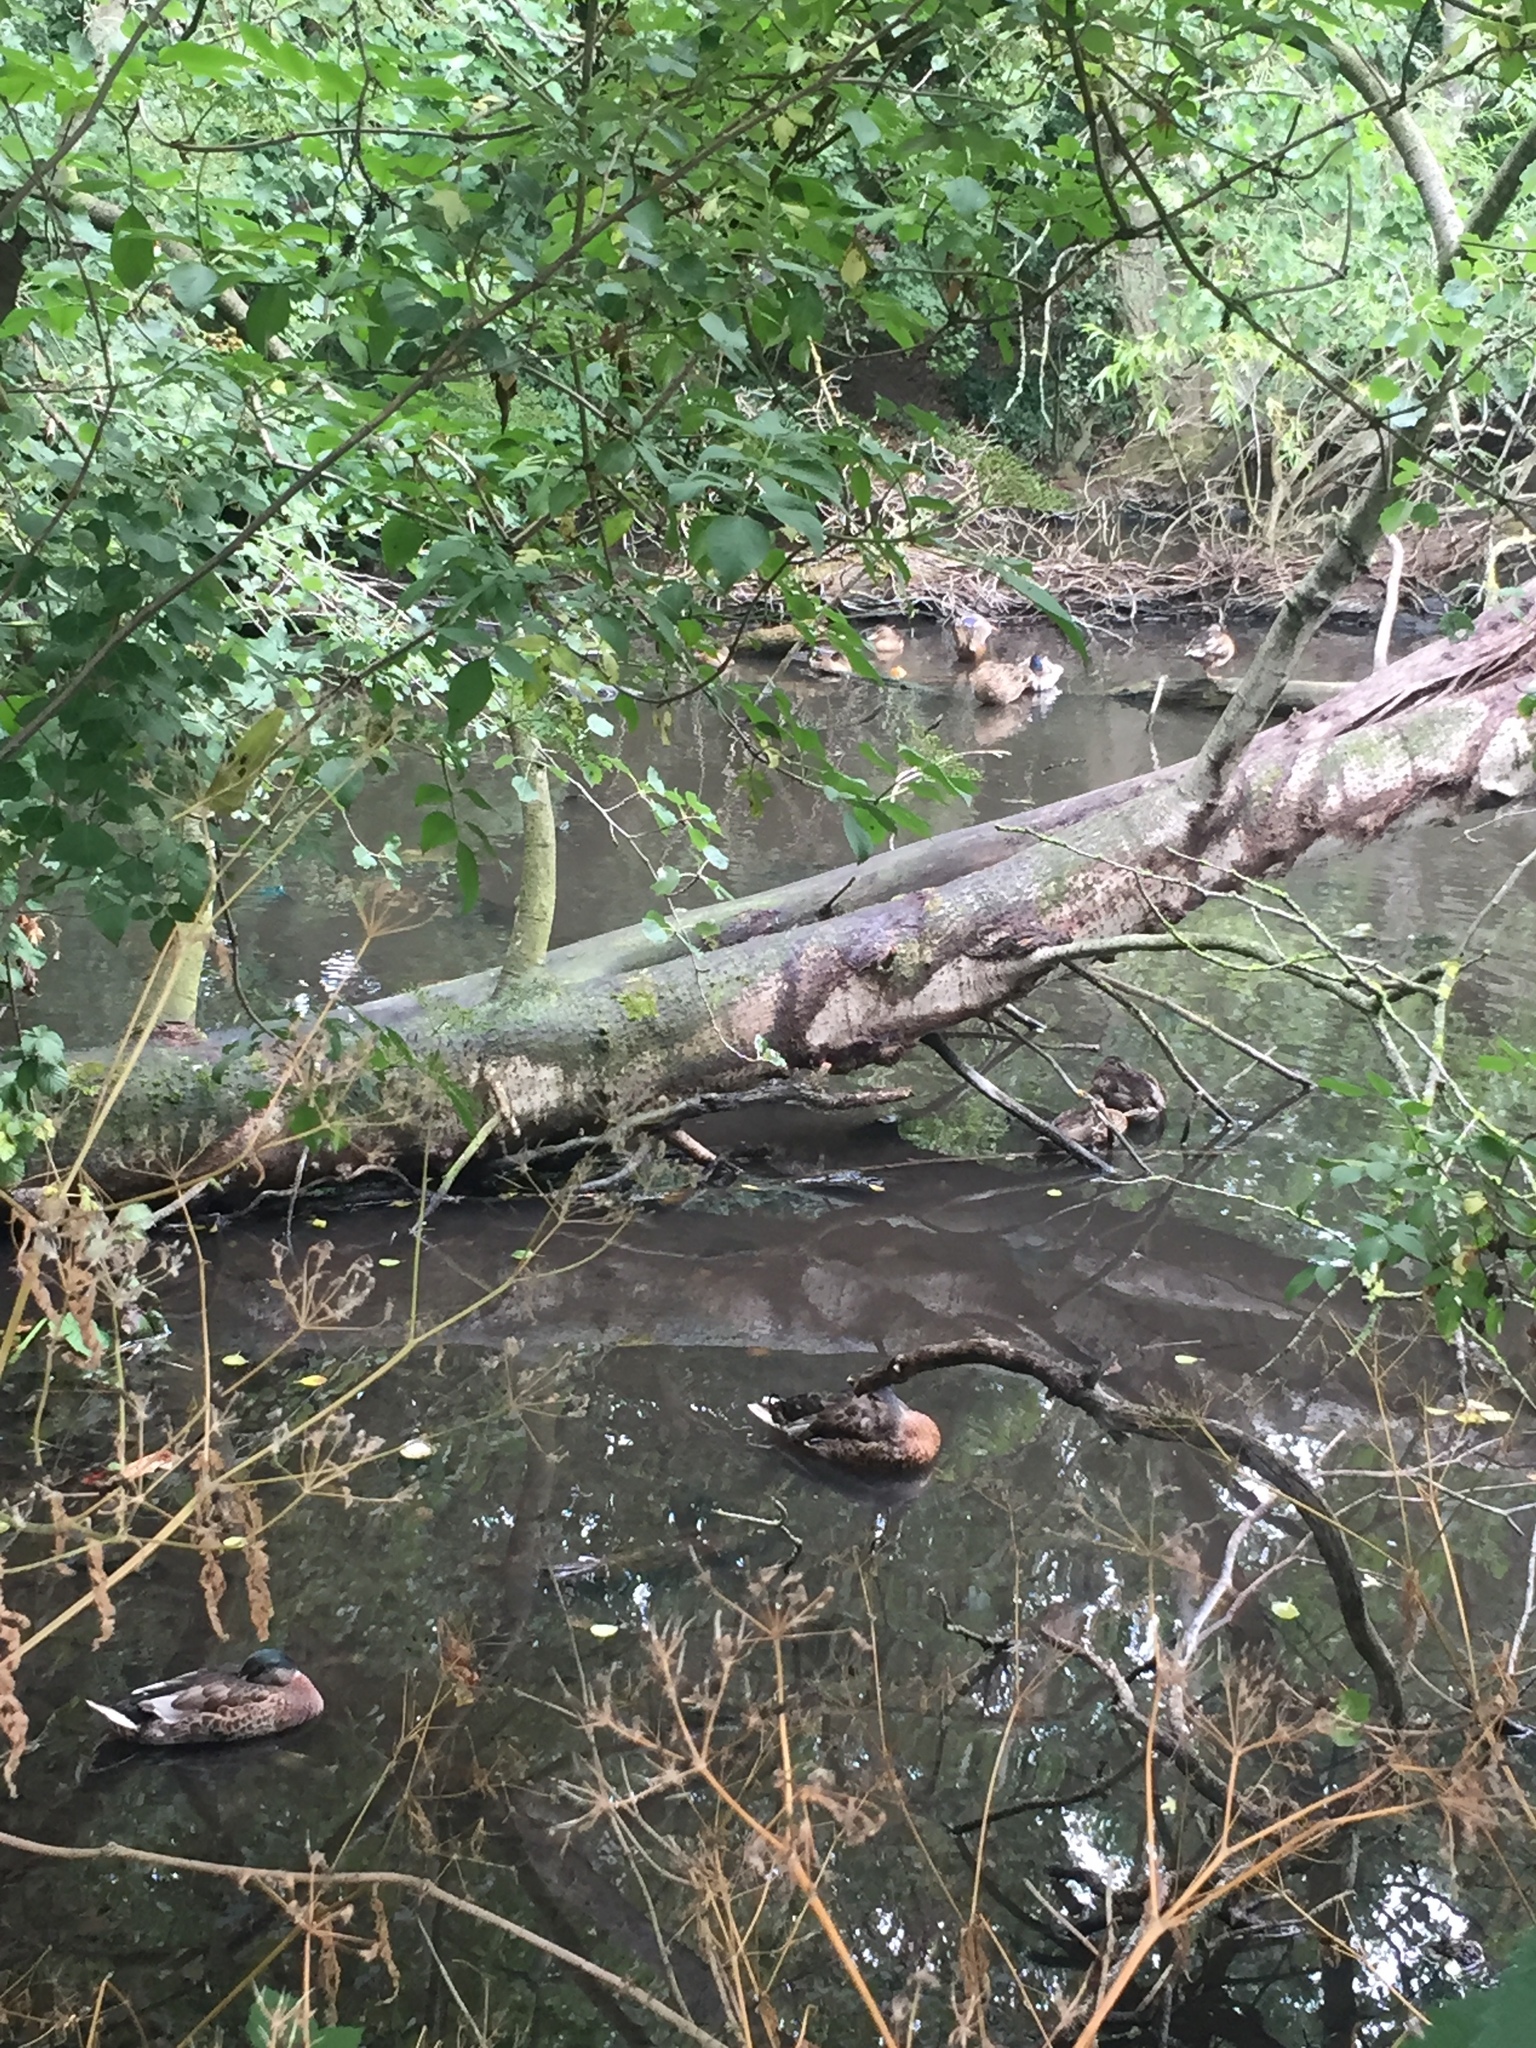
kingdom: Animalia
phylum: Chordata
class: Aves
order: Anseriformes
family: Anatidae
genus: Anas
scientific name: Anas platyrhynchos
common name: Mallard
